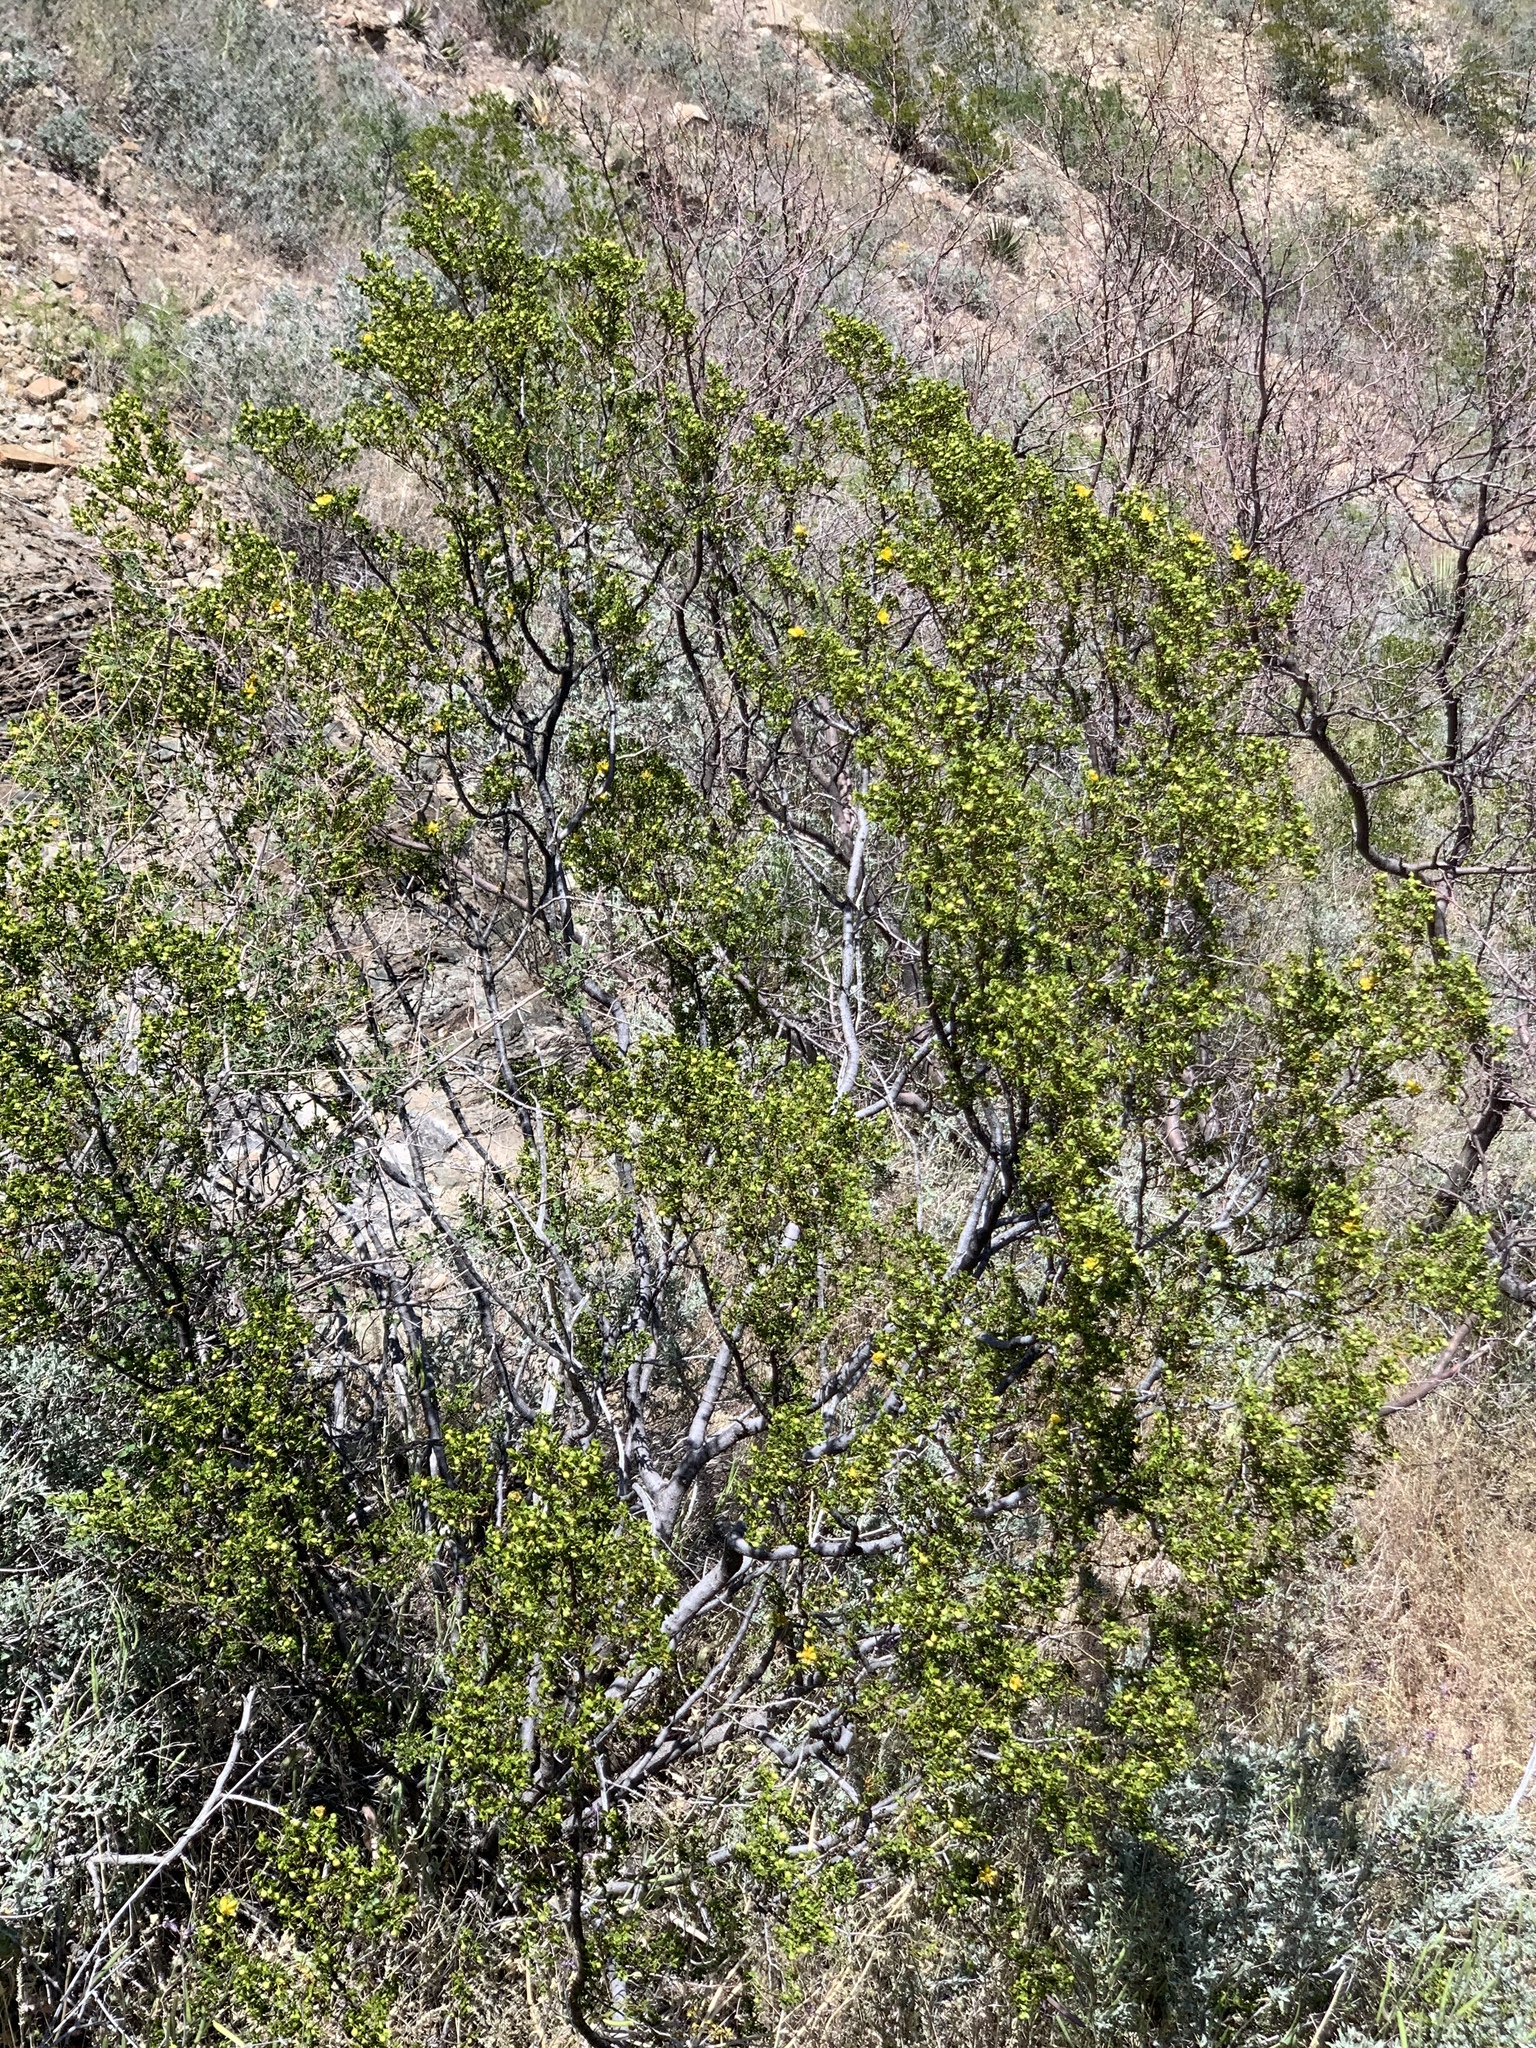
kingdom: Plantae
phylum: Tracheophyta
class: Magnoliopsida
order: Zygophyllales
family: Zygophyllaceae
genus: Larrea
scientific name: Larrea tridentata
